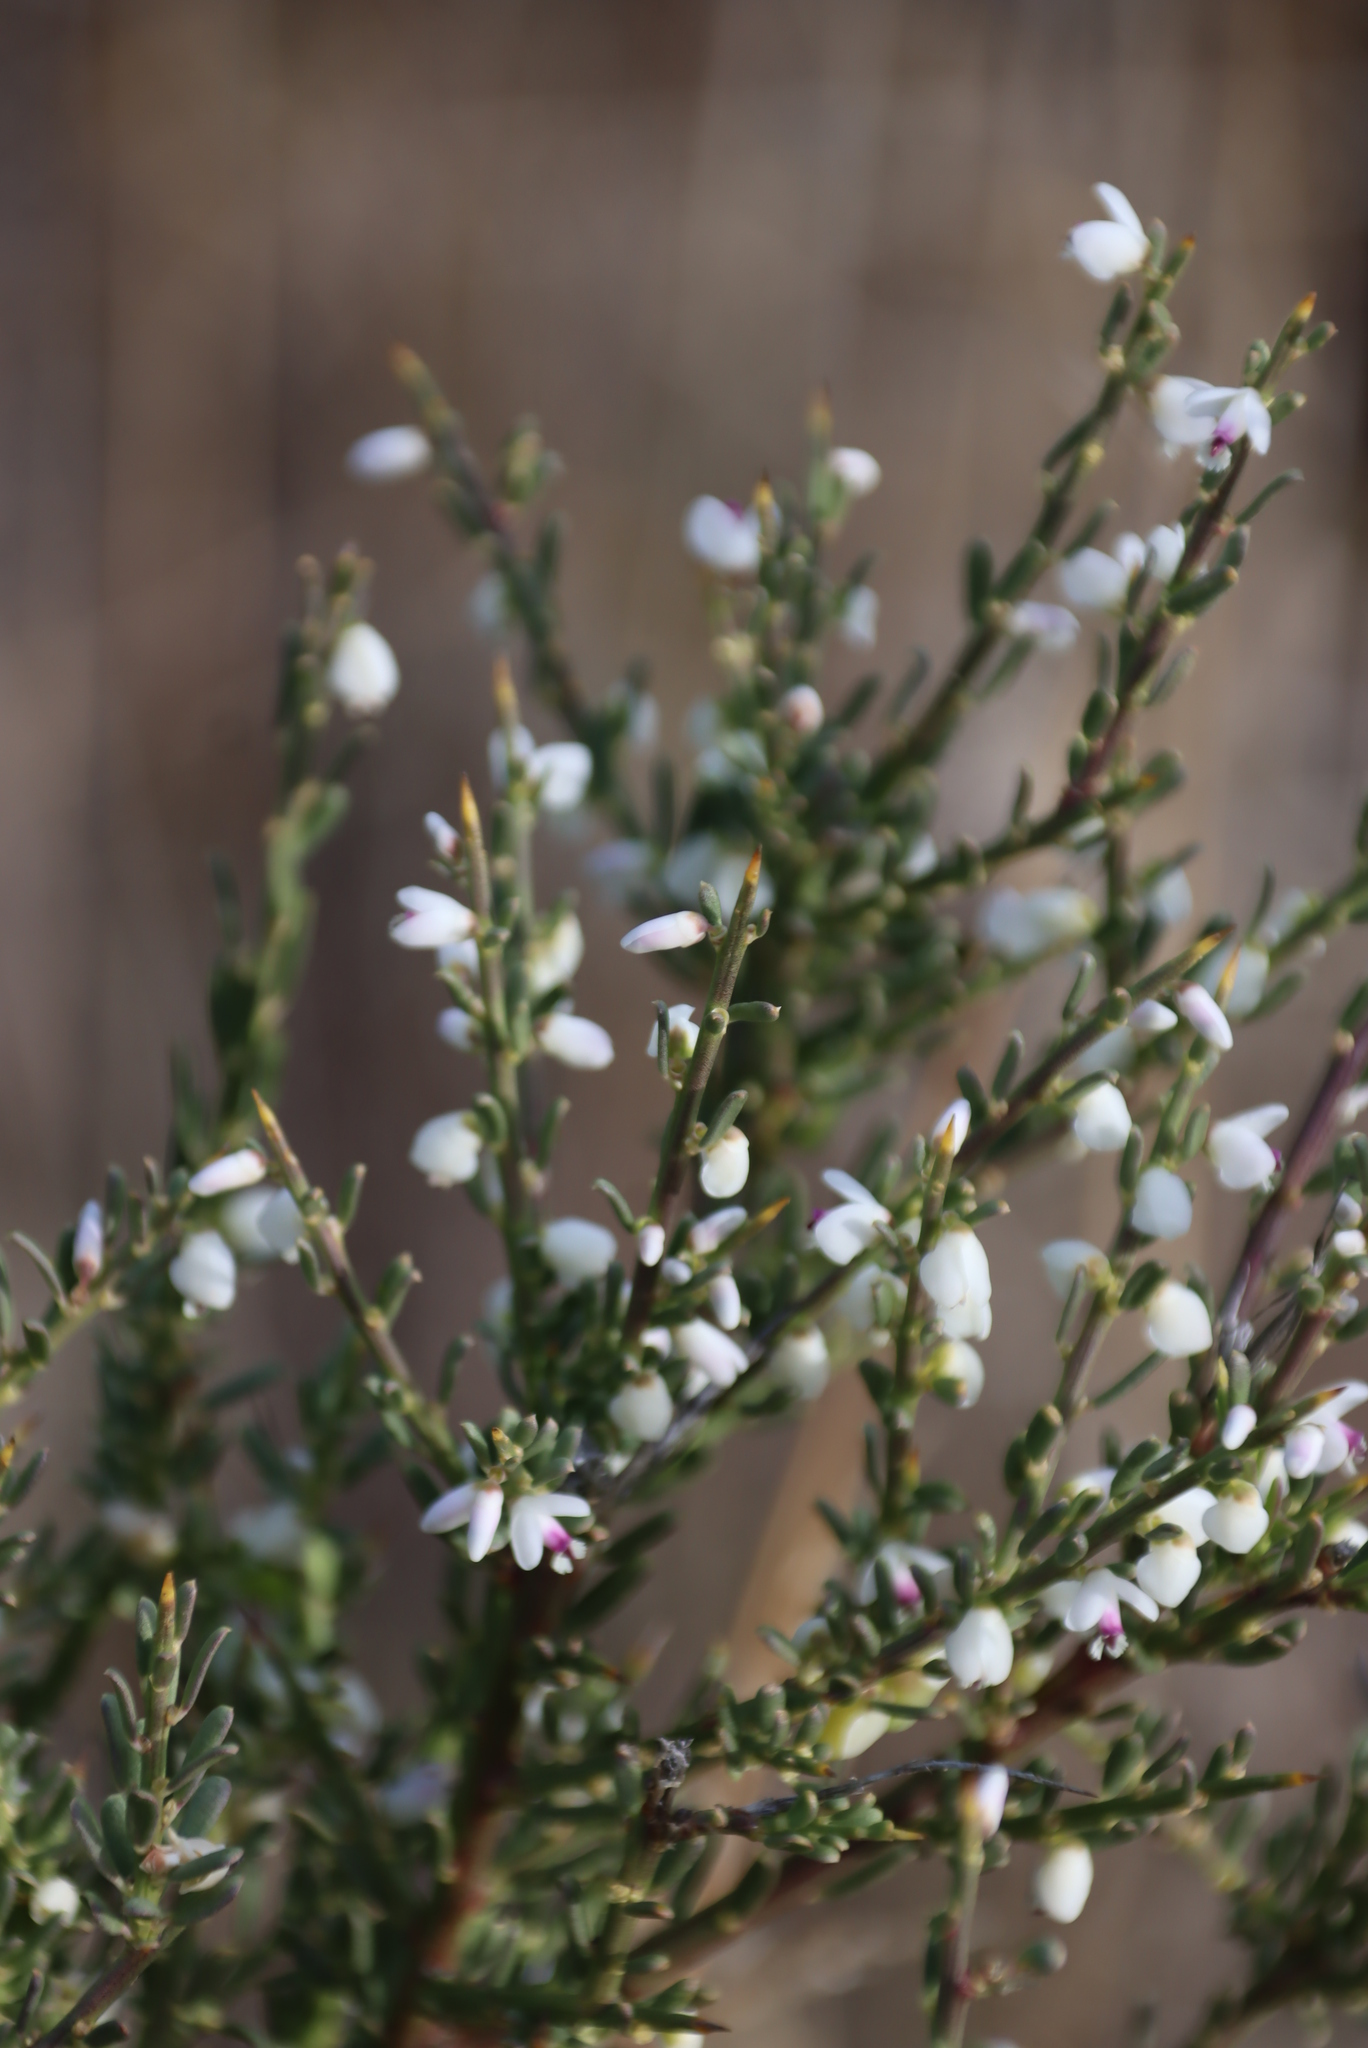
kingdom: Plantae
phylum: Tracheophyta
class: Magnoliopsida
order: Fabales
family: Polygalaceae
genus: Muraltia
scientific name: Muraltia spinosa
